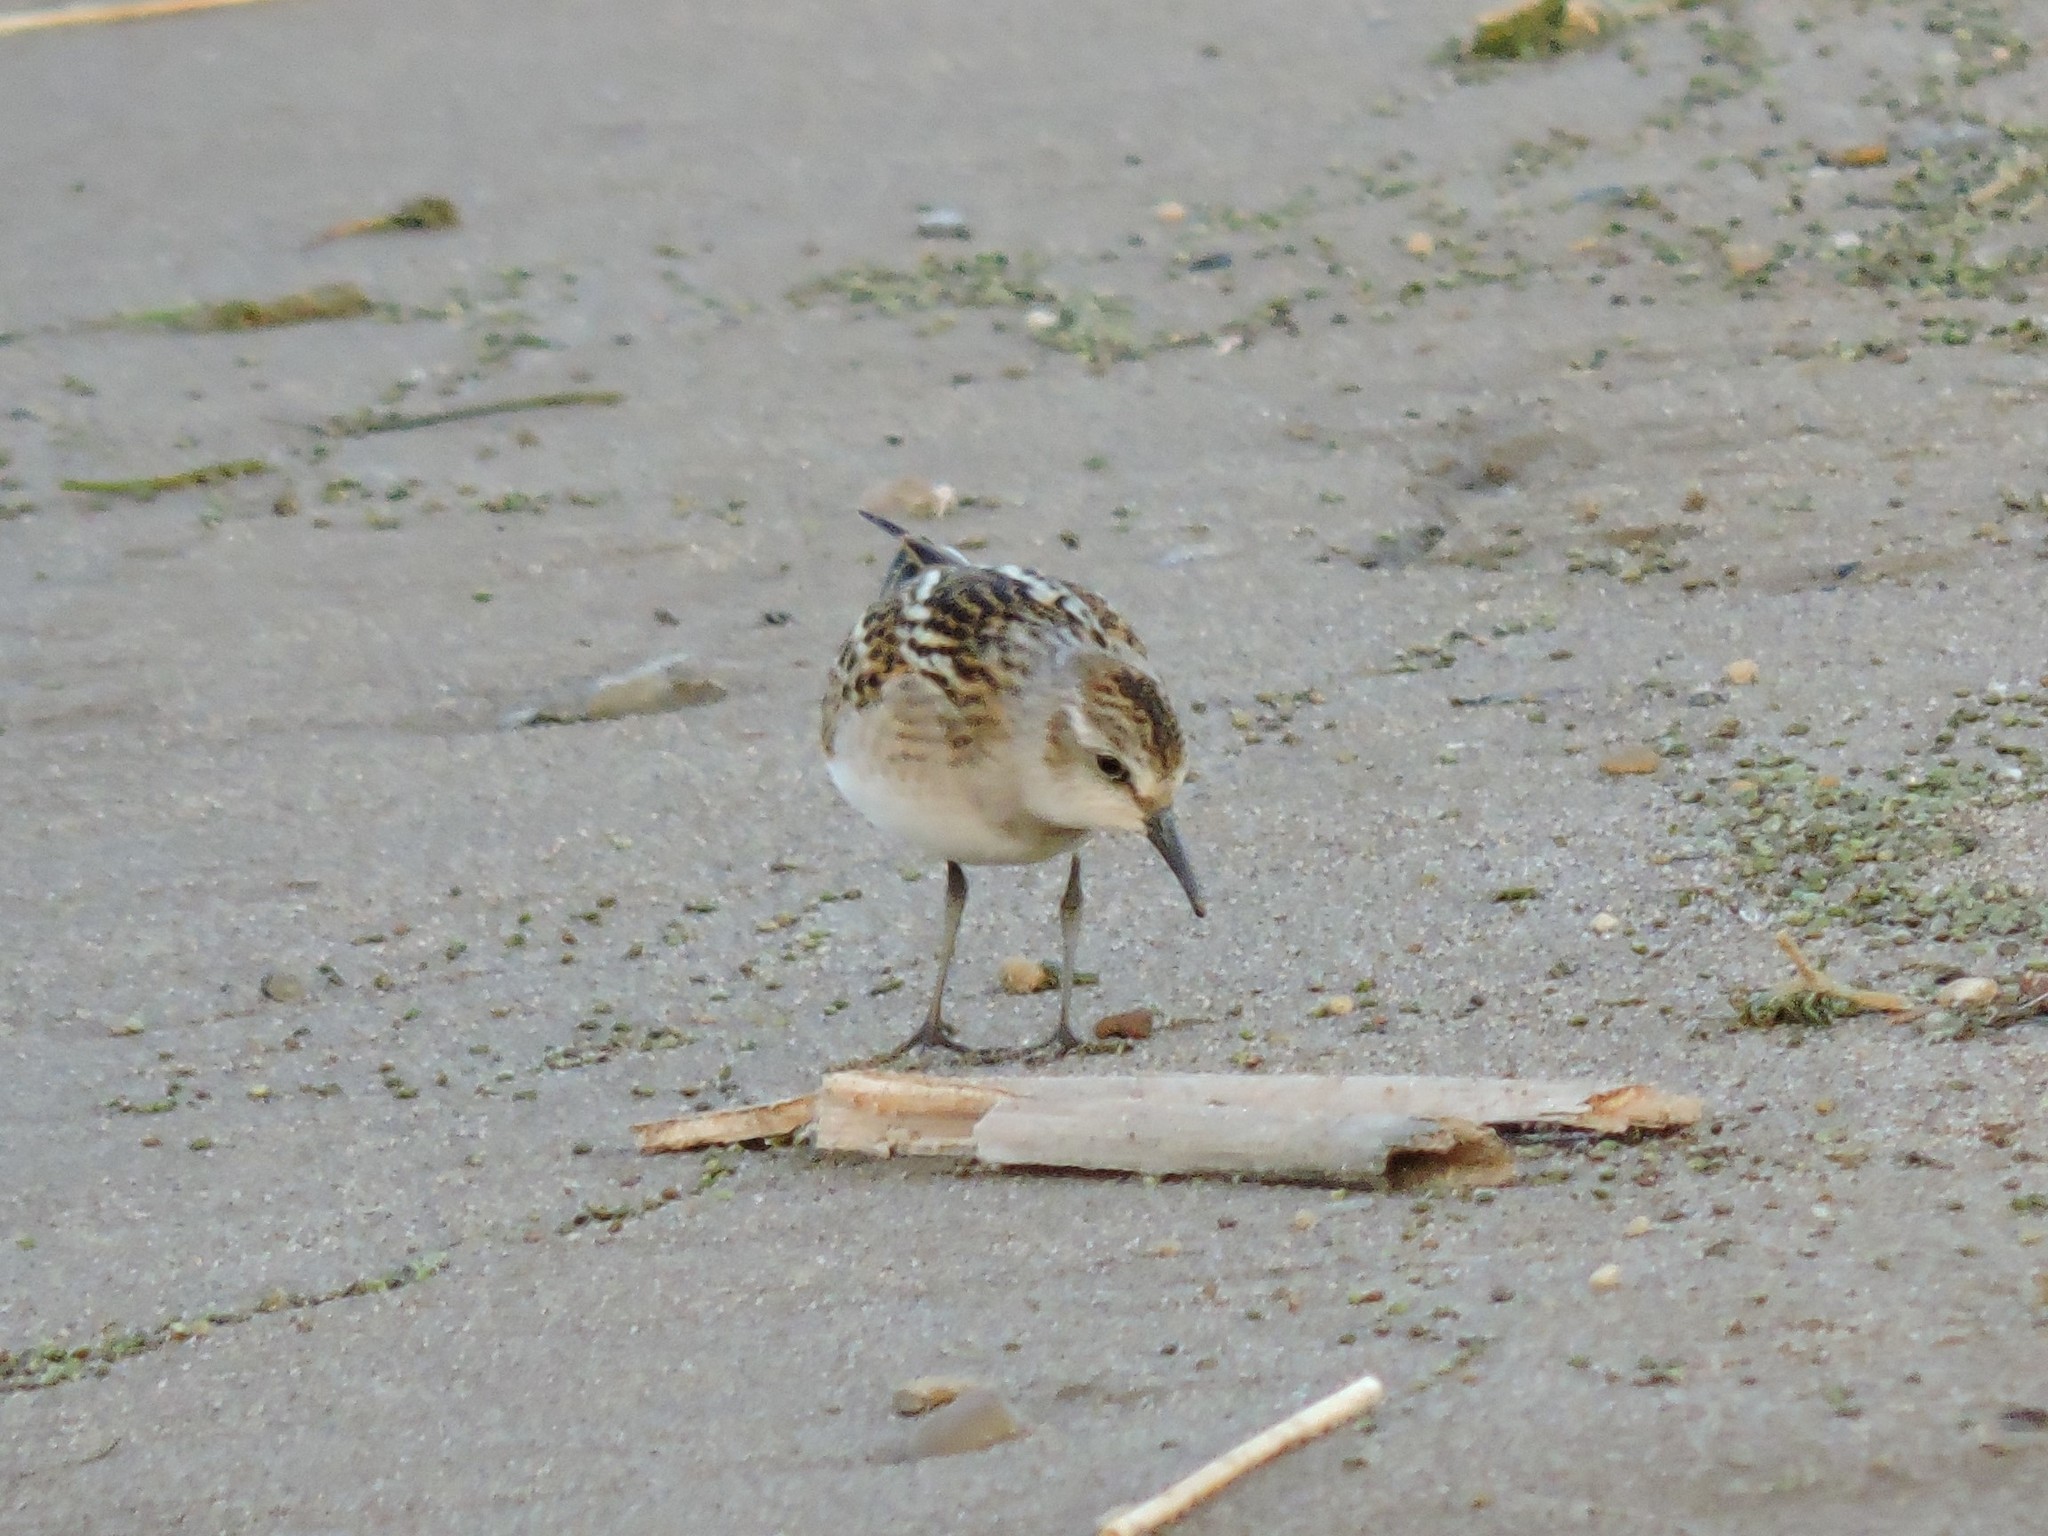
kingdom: Animalia
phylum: Chordata
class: Aves
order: Charadriiformes
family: Scolopacidae
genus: Calidris
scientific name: Calidris minuta
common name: Little stint
